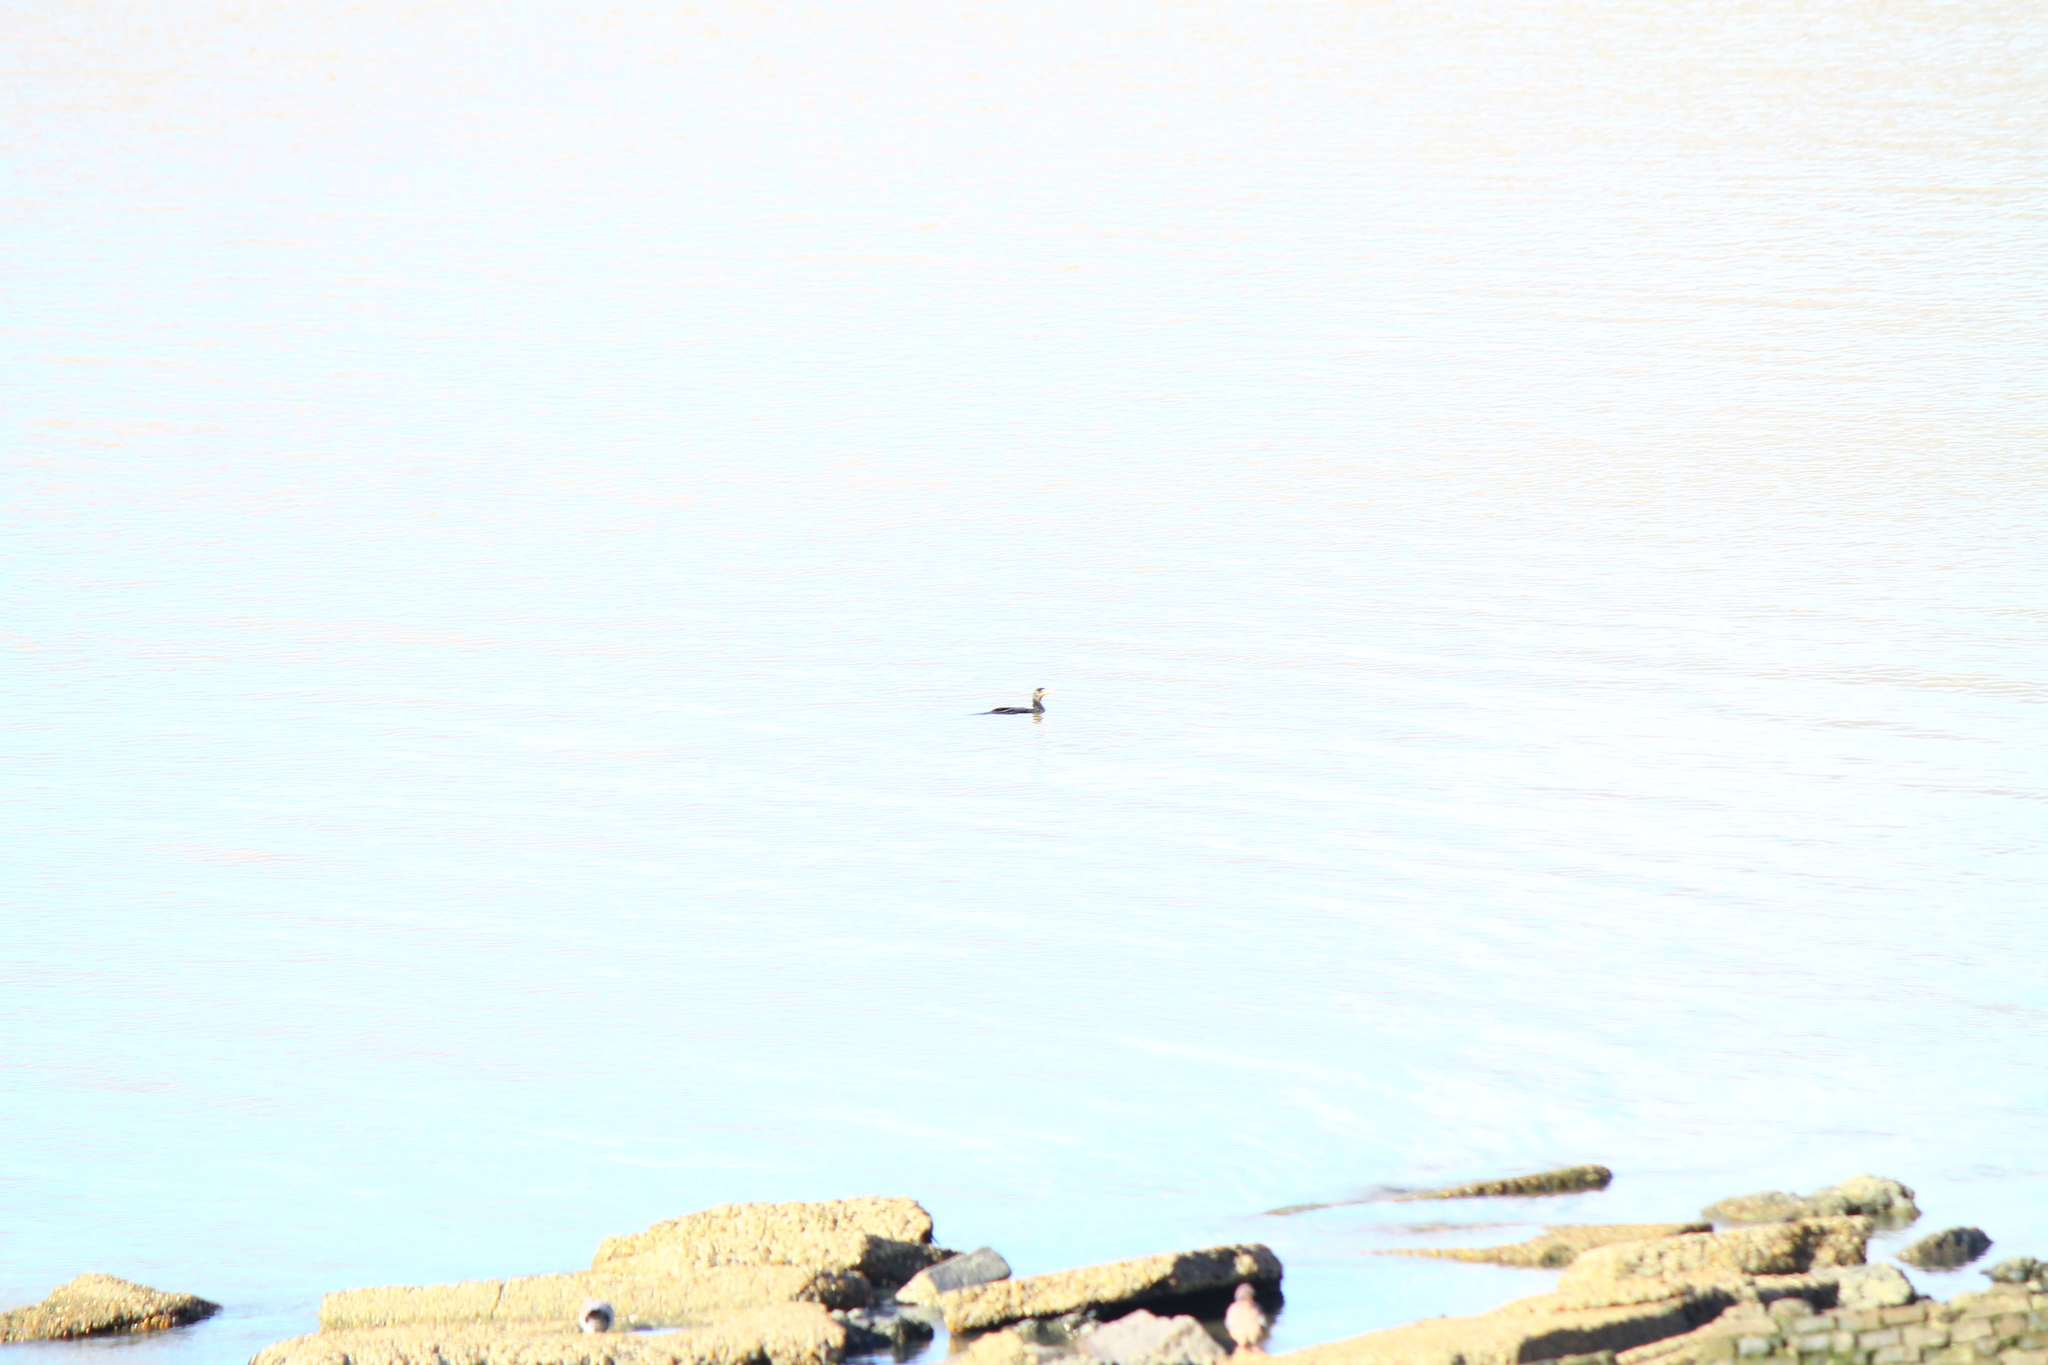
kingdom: Animalia
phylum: Chordata
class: Aves
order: Suliformes
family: Phalacrocoracidae
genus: Phalacrocorax
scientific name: Phalacrocorax brasilianus
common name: Neotropic cormorant
